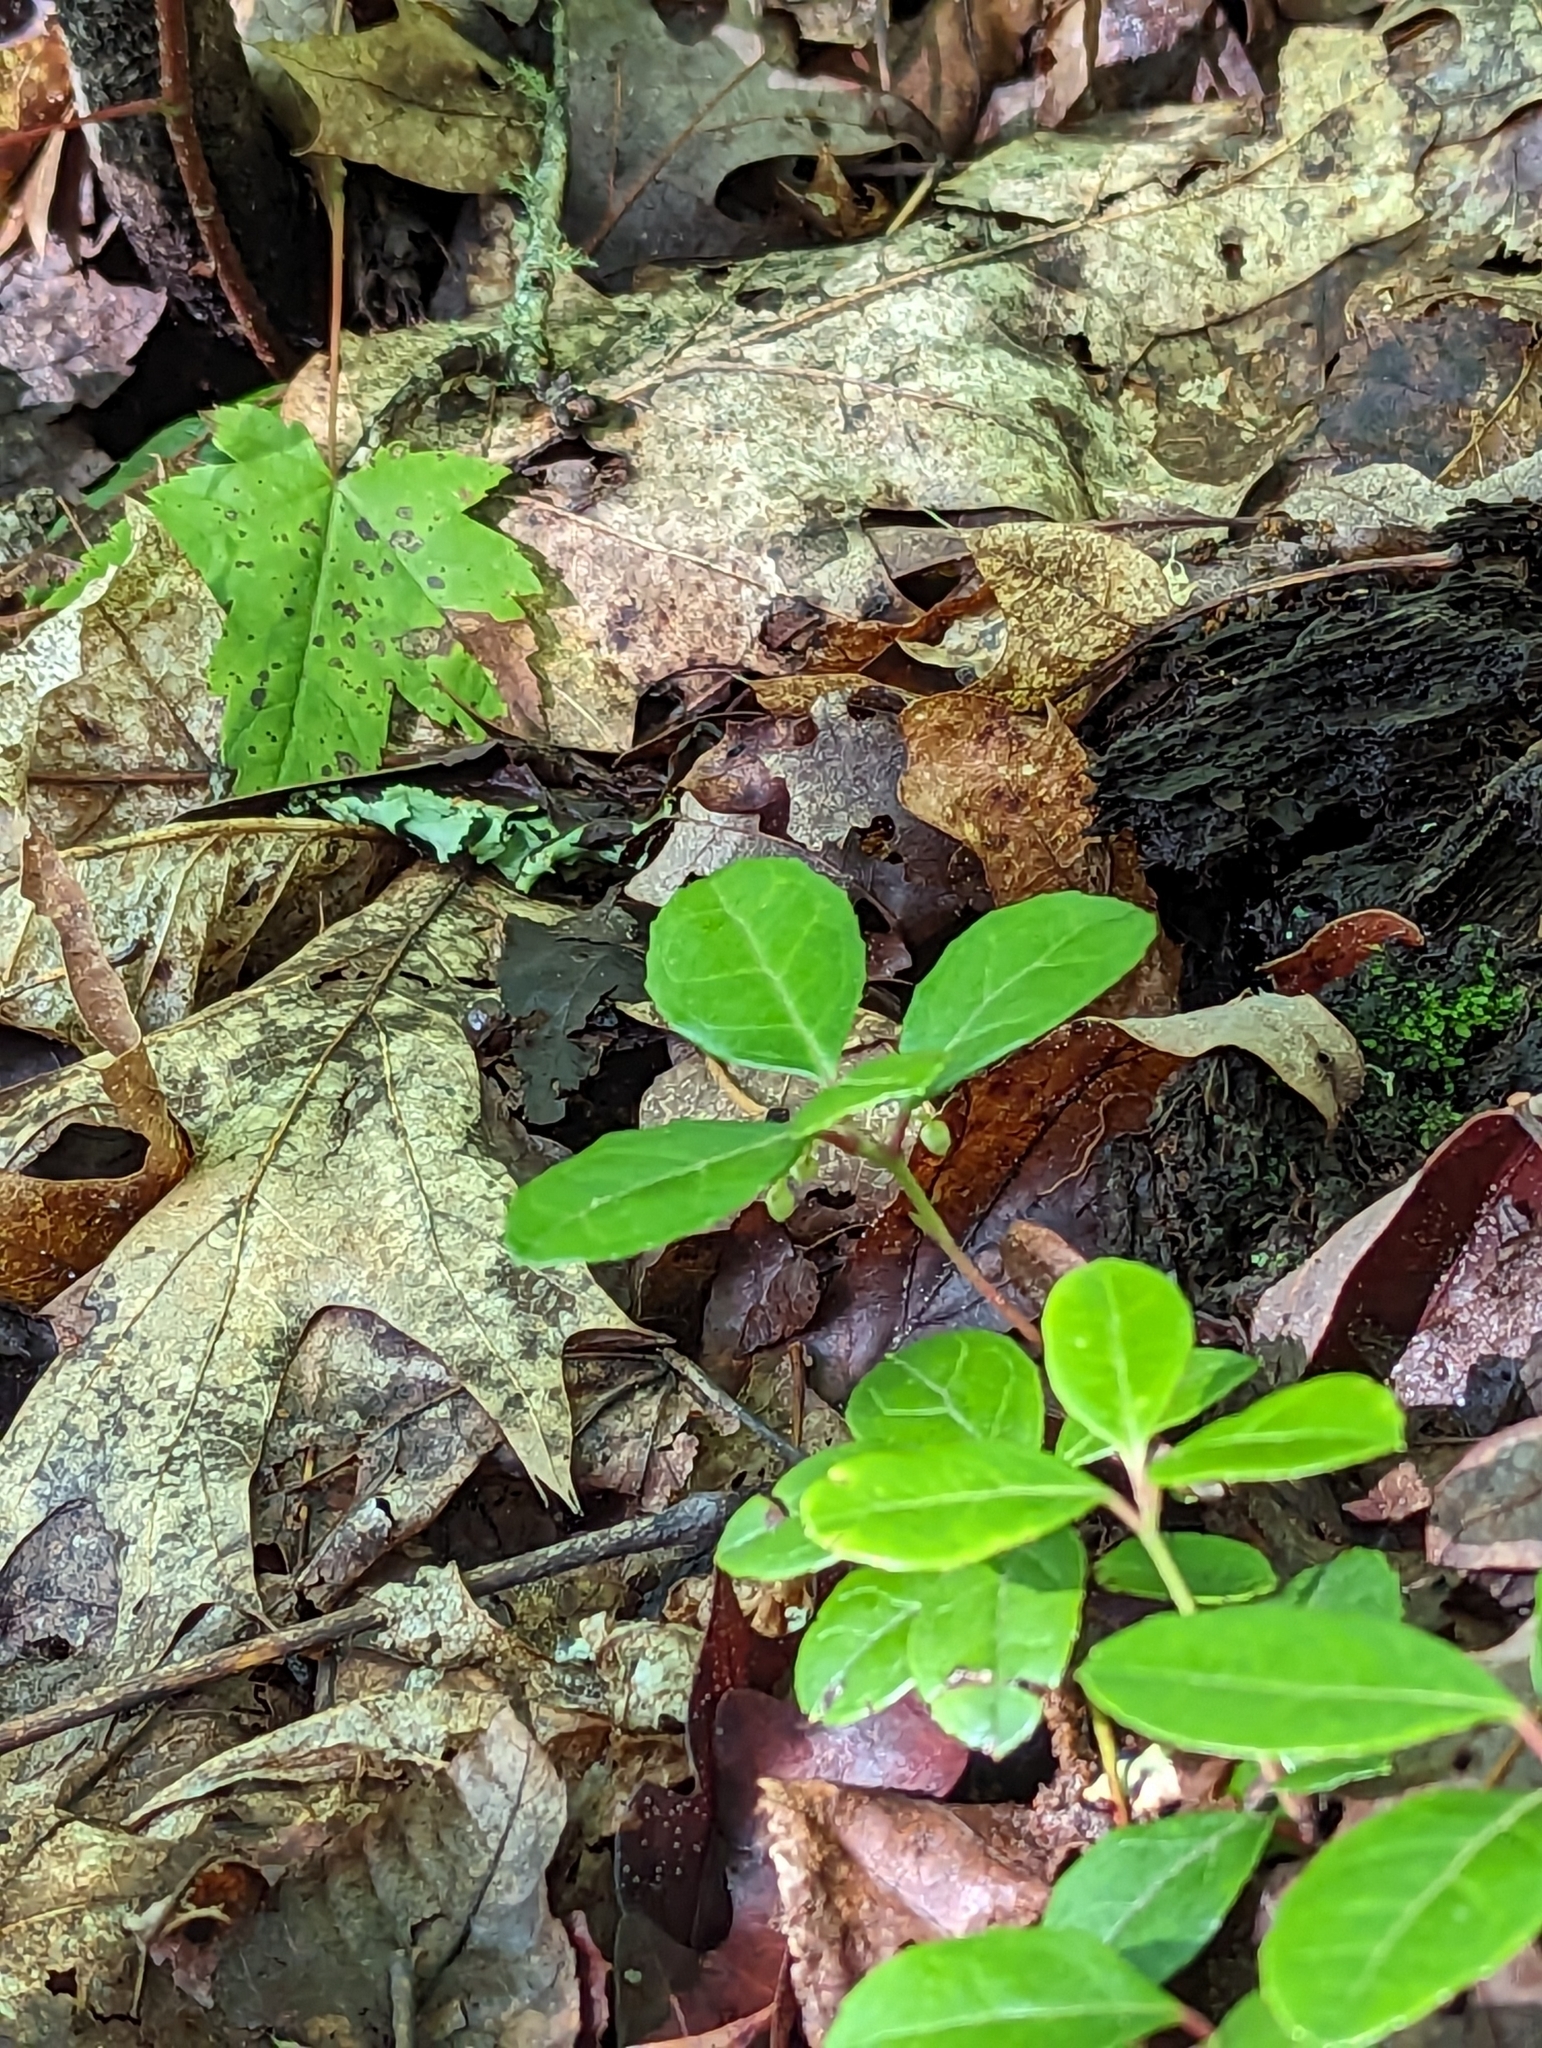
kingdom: Plantae
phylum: Tracheophyta
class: Magnoliopsida
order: Ericales
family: Ericaceae
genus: Gaultheria
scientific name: Gaultheria procumbens
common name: Checkerberry
